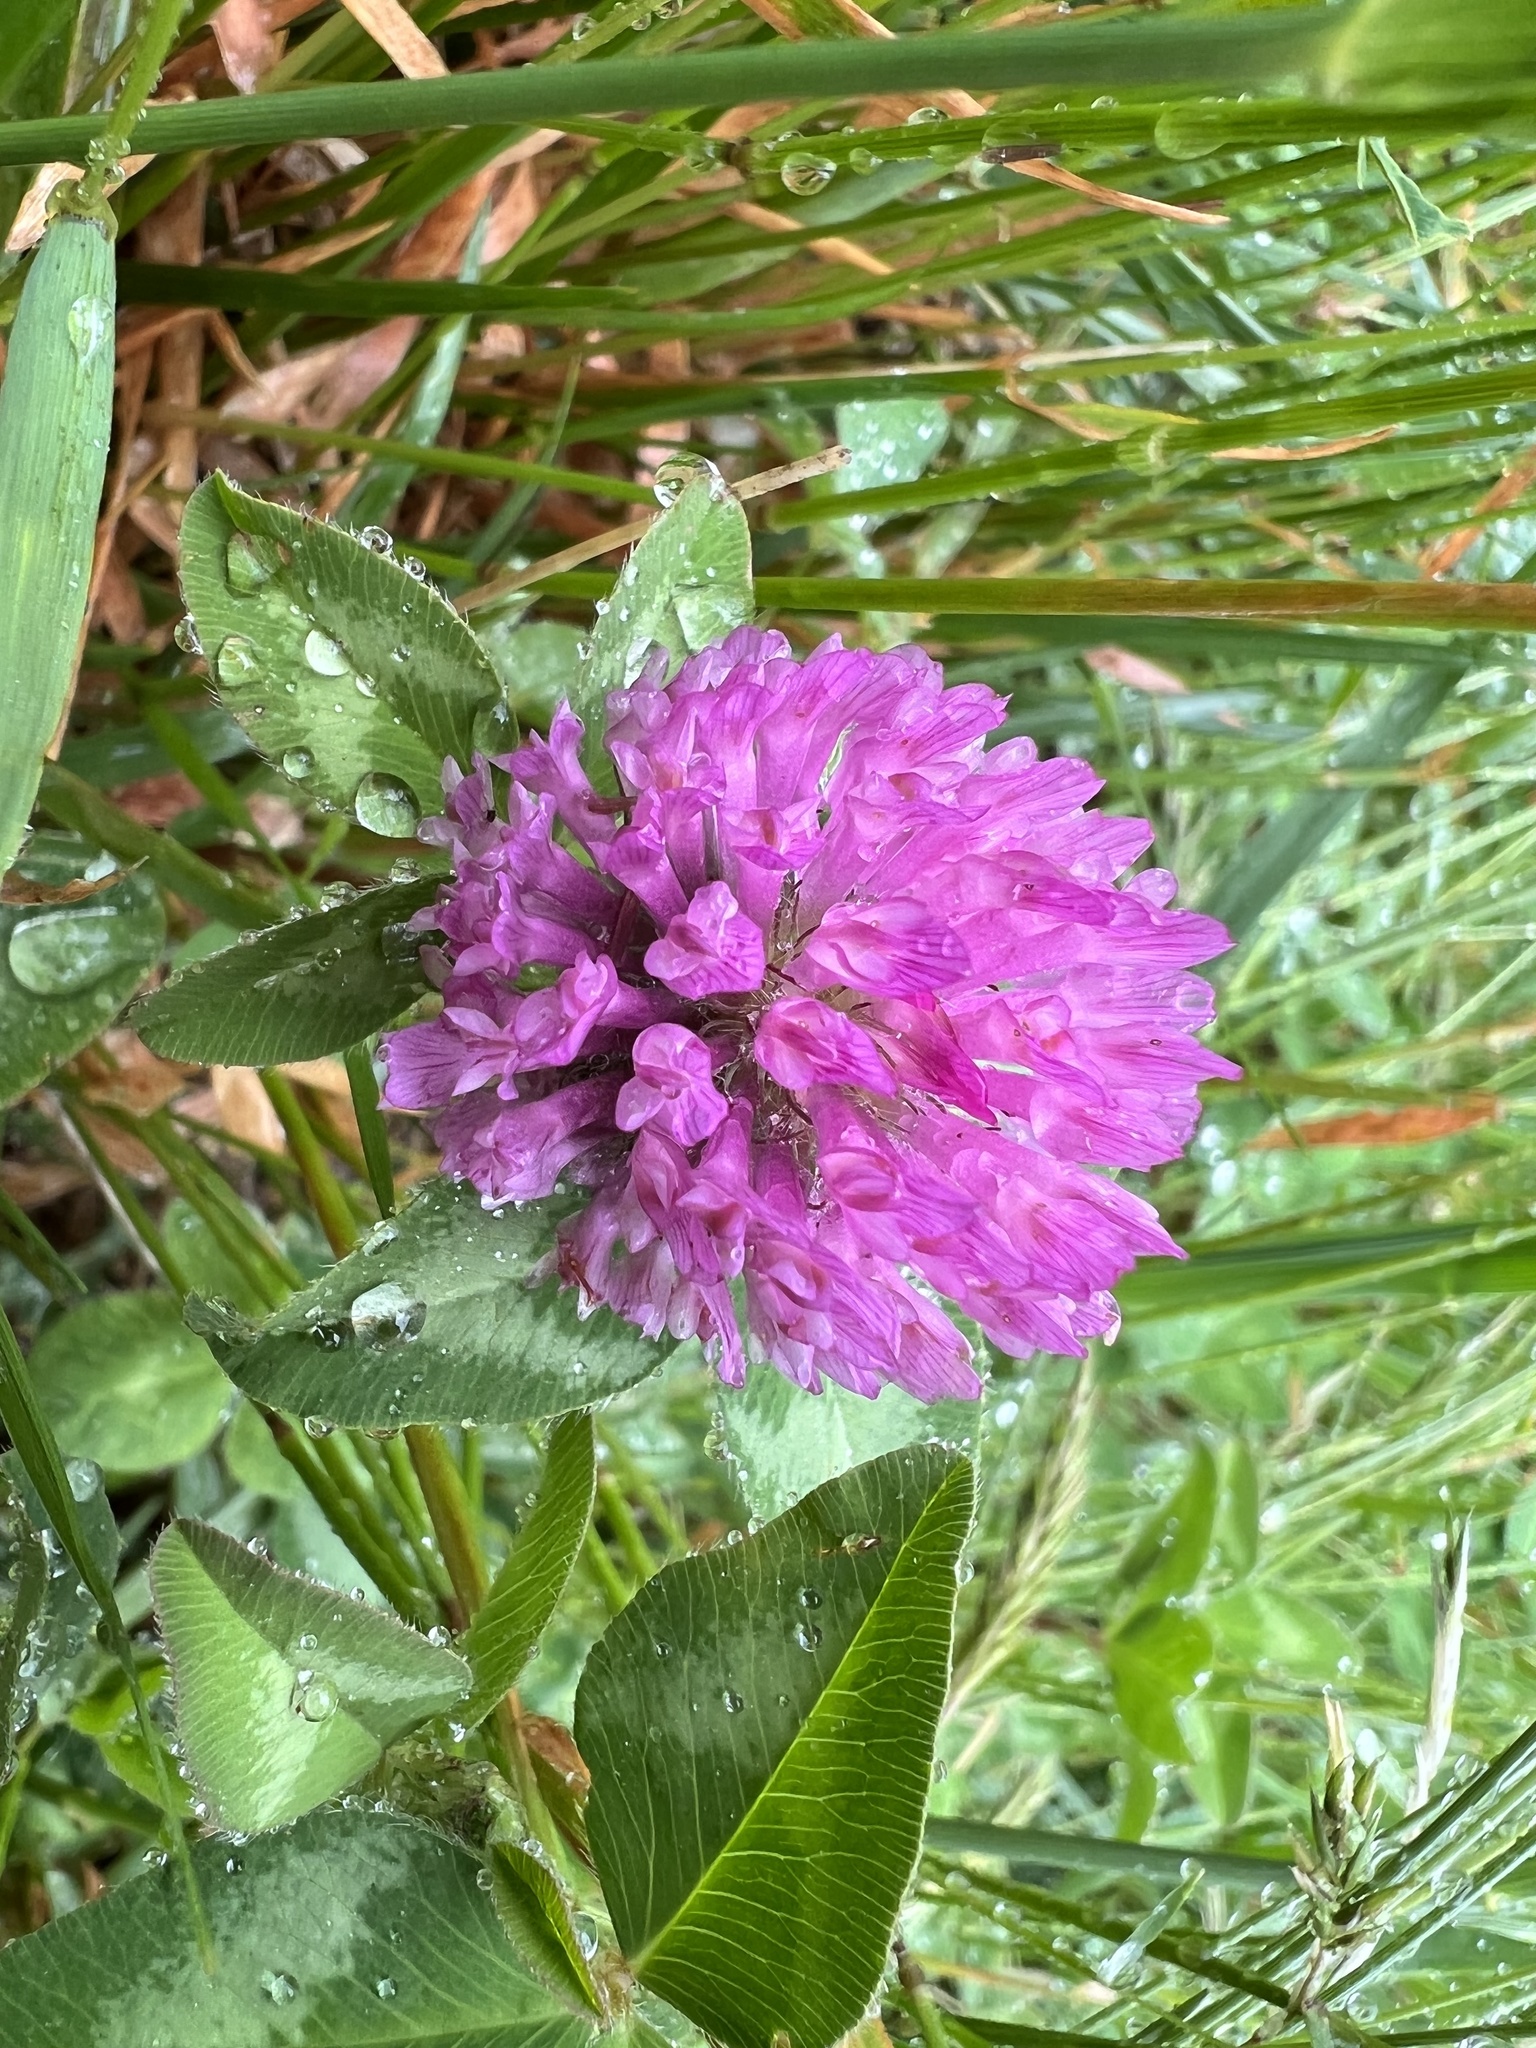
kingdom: Plantae
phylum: Tracheophyta
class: Magnoliopsida
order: Fabales
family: Fabaceae
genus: Trifolium
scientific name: Trifolium pratense
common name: Red clover
